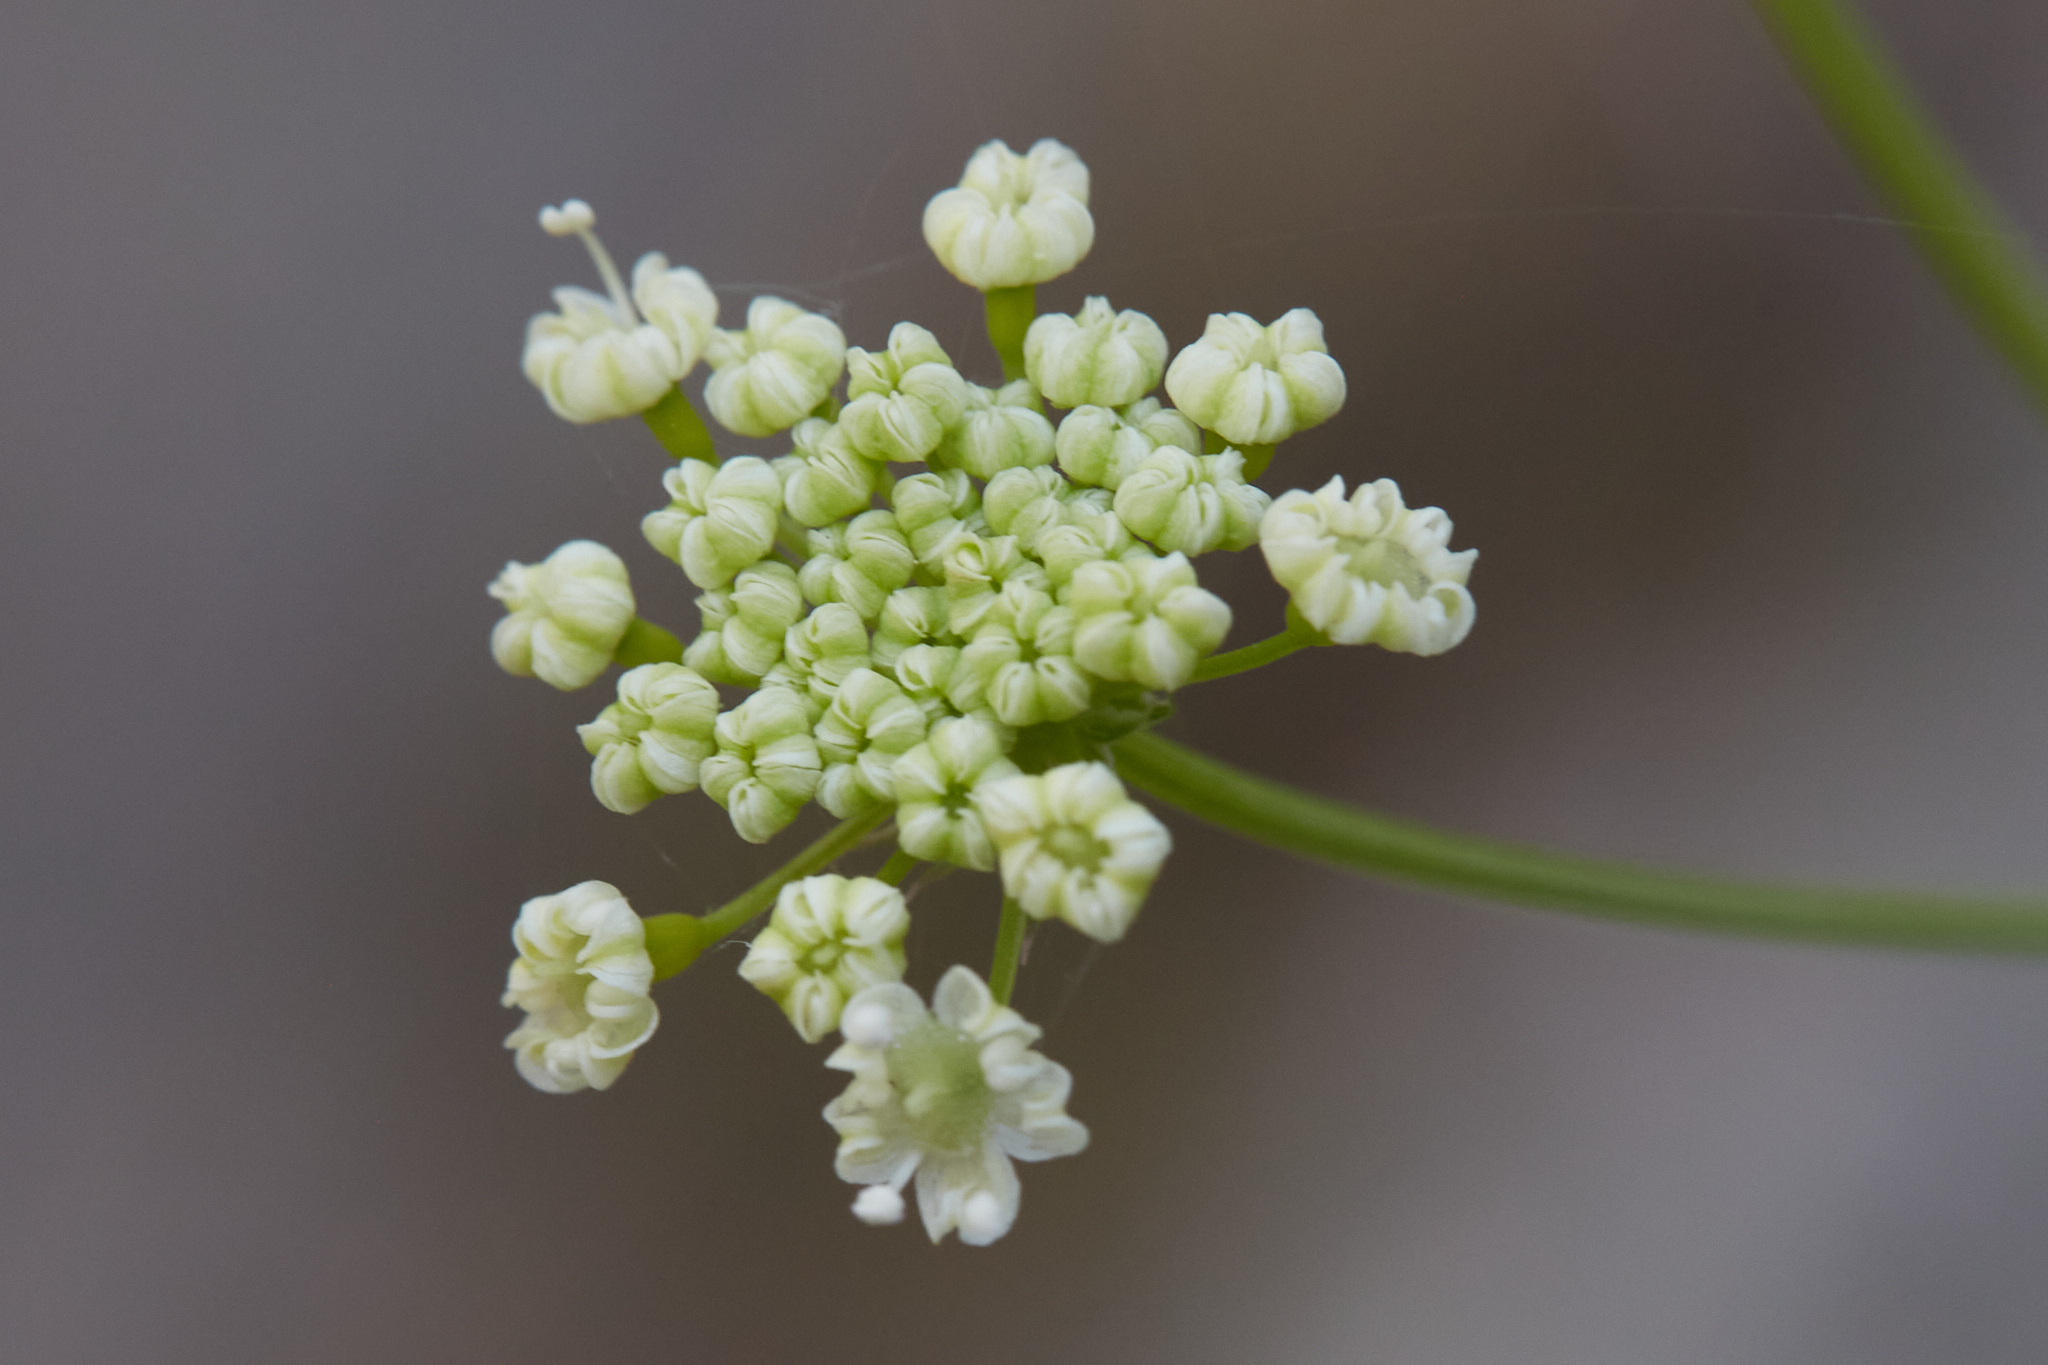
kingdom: Plantae
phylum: Tracheophyta
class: Magnoliopsida
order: Apiales
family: Apiaceae
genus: Perideridia
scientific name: Perideridia californica
